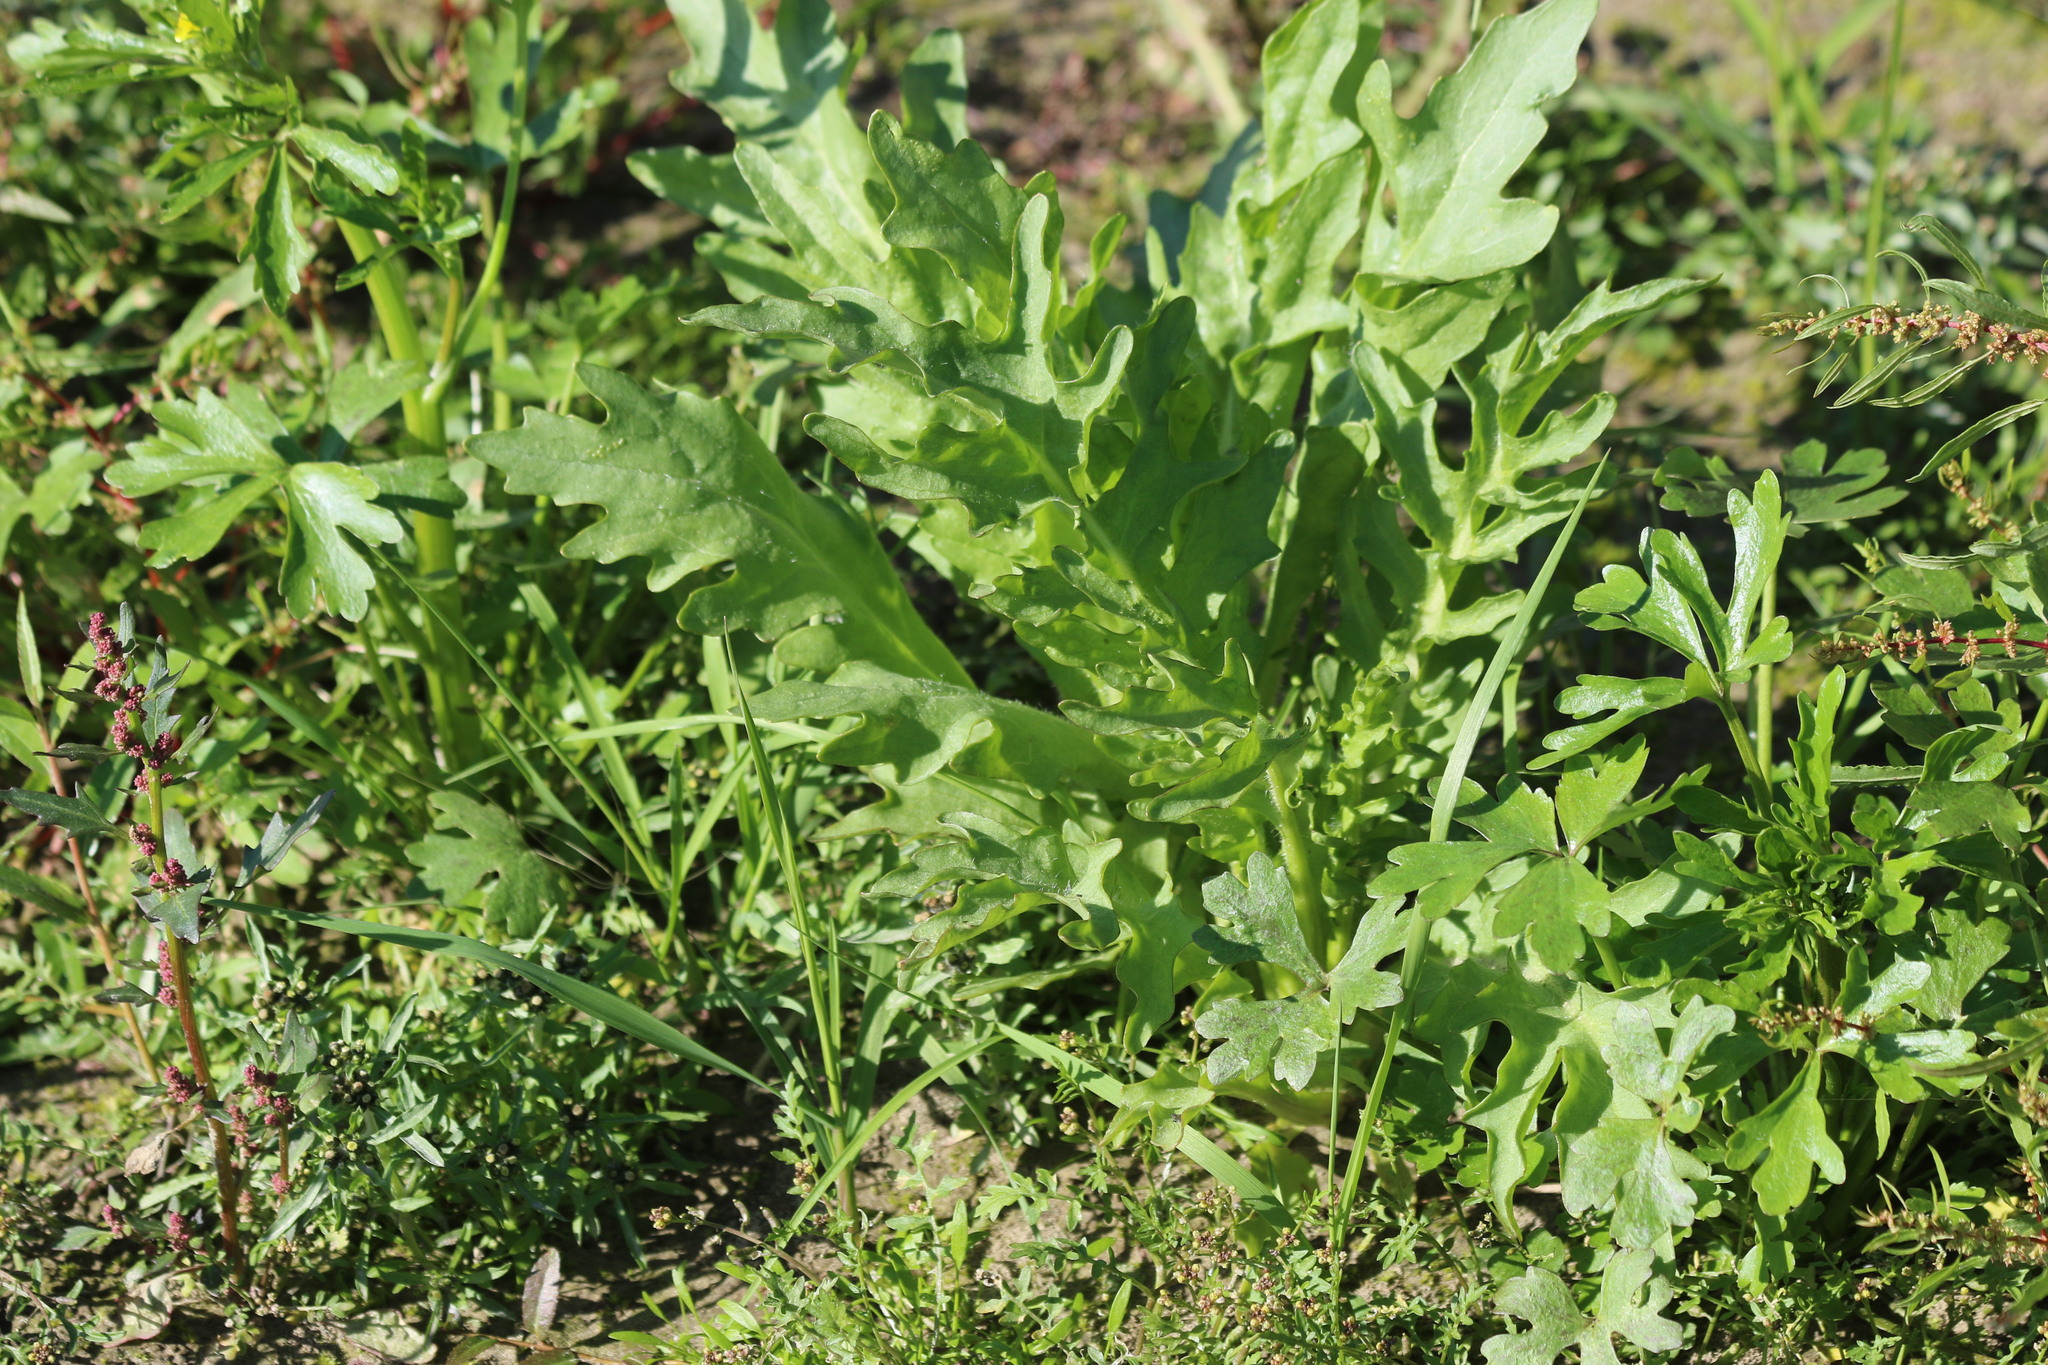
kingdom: Plantae
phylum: Tracheophyta
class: Magnoliopsida
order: Asterales
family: Asteraceae
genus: Tephroseris
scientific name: Tephroseris palustris
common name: Marsh fleawort
